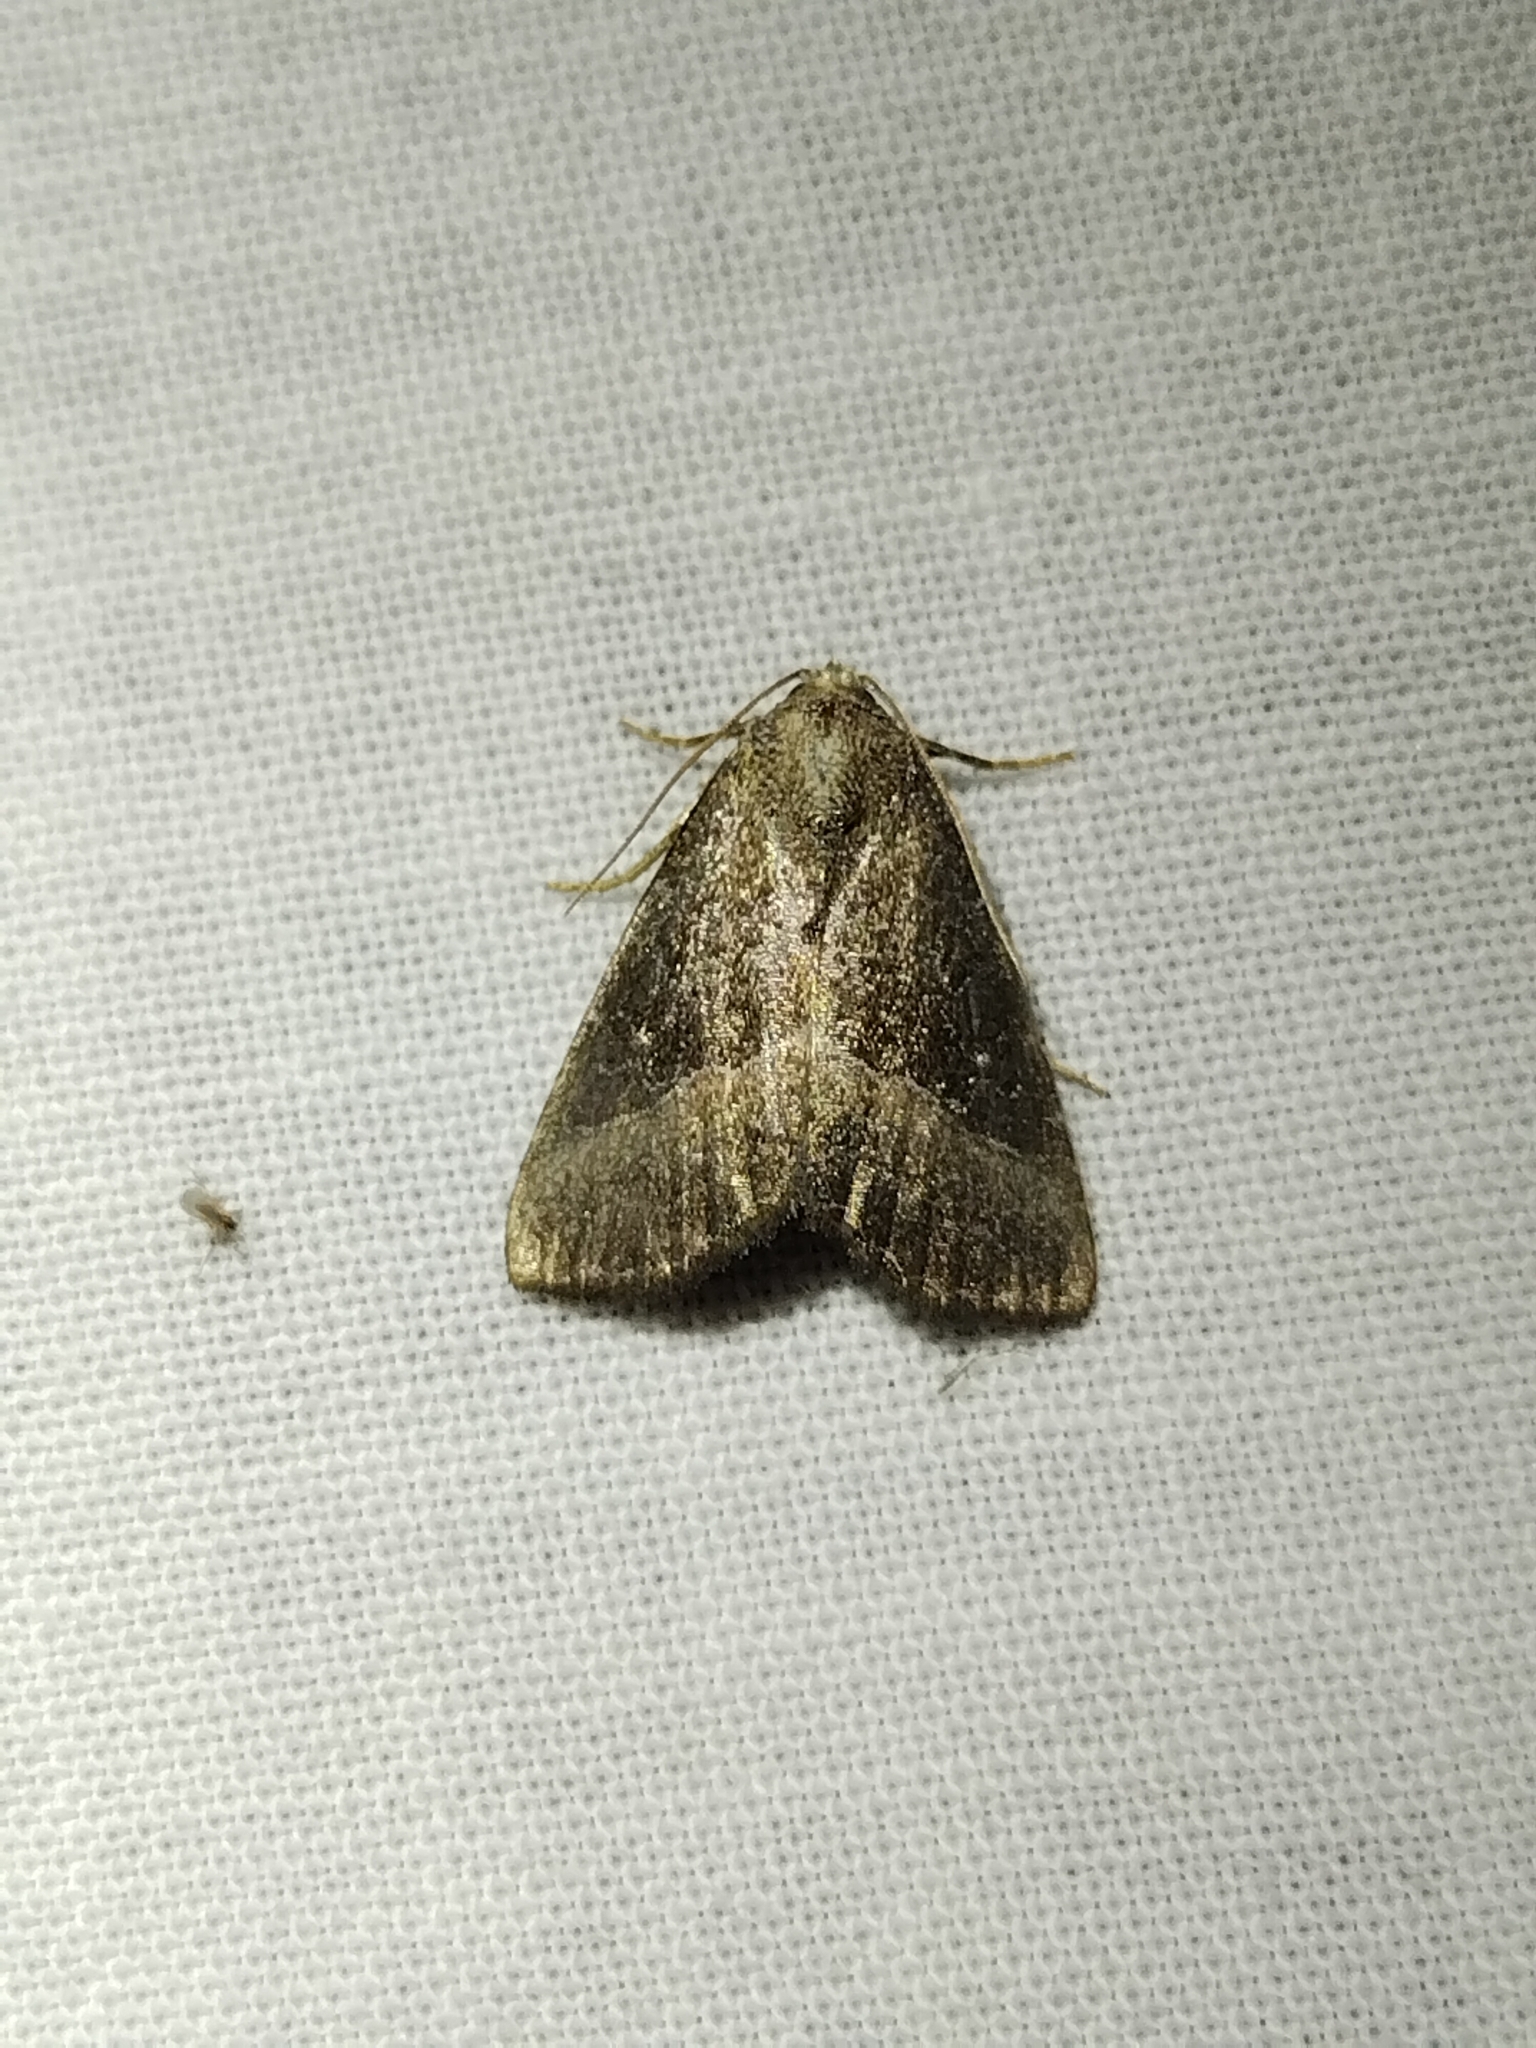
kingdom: Animalia
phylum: Arthropoda
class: Insecta
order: Lepidoptera
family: Noctuidae
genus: Ogdoconta
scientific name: Ogdoconta cinereola
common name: Common pinkband
